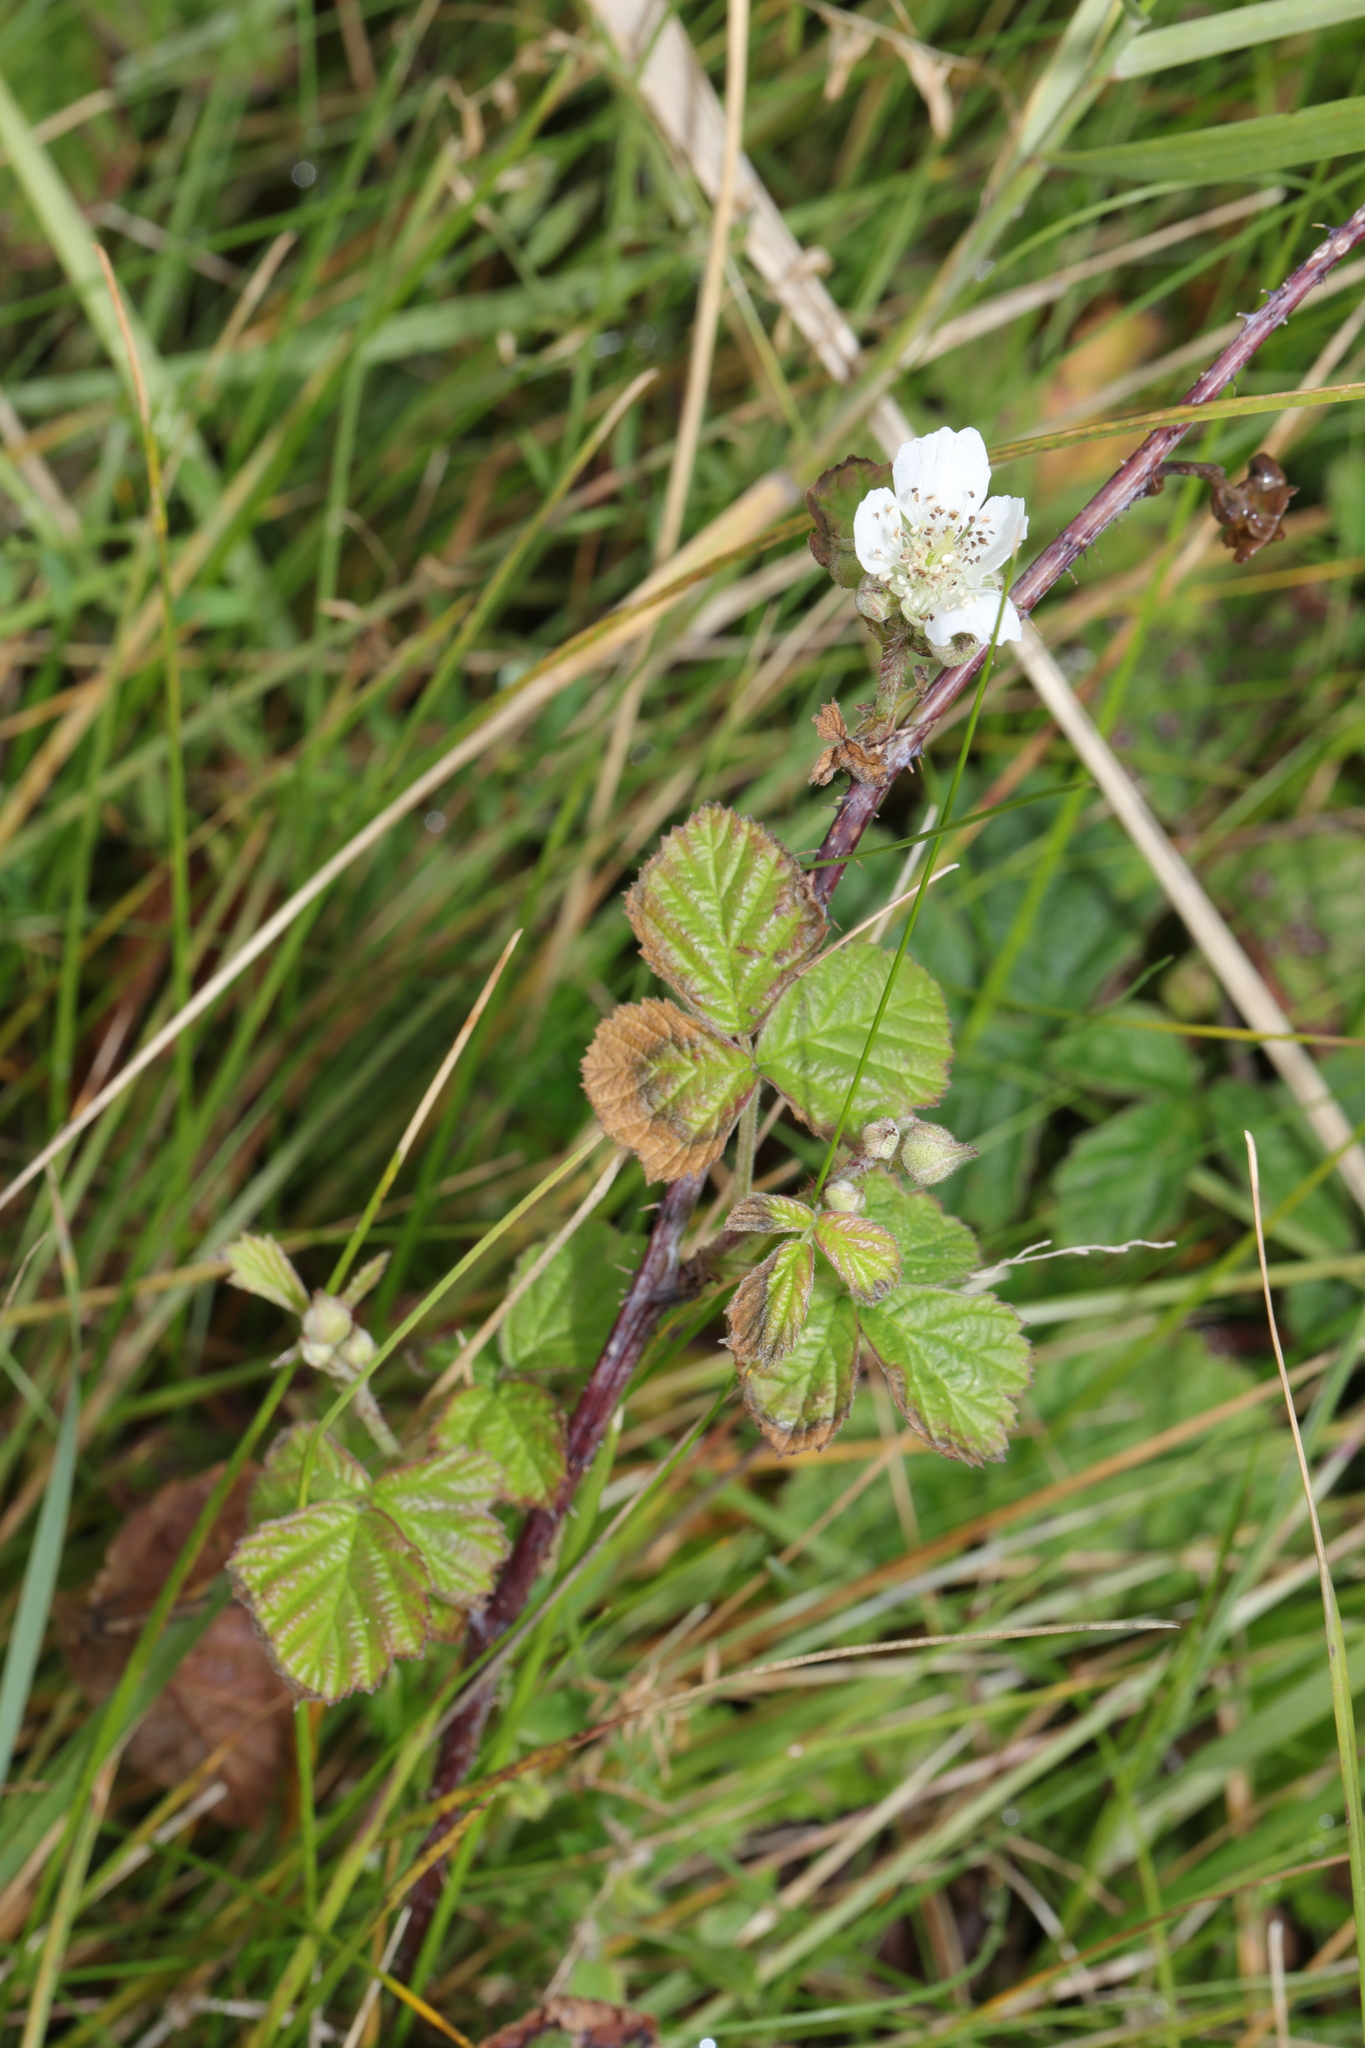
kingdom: Plantae
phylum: Tracheophyta
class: Magnoliopsida
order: Rosales
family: Rosaceae
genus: Rubus
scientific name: Rubus horrefactus
